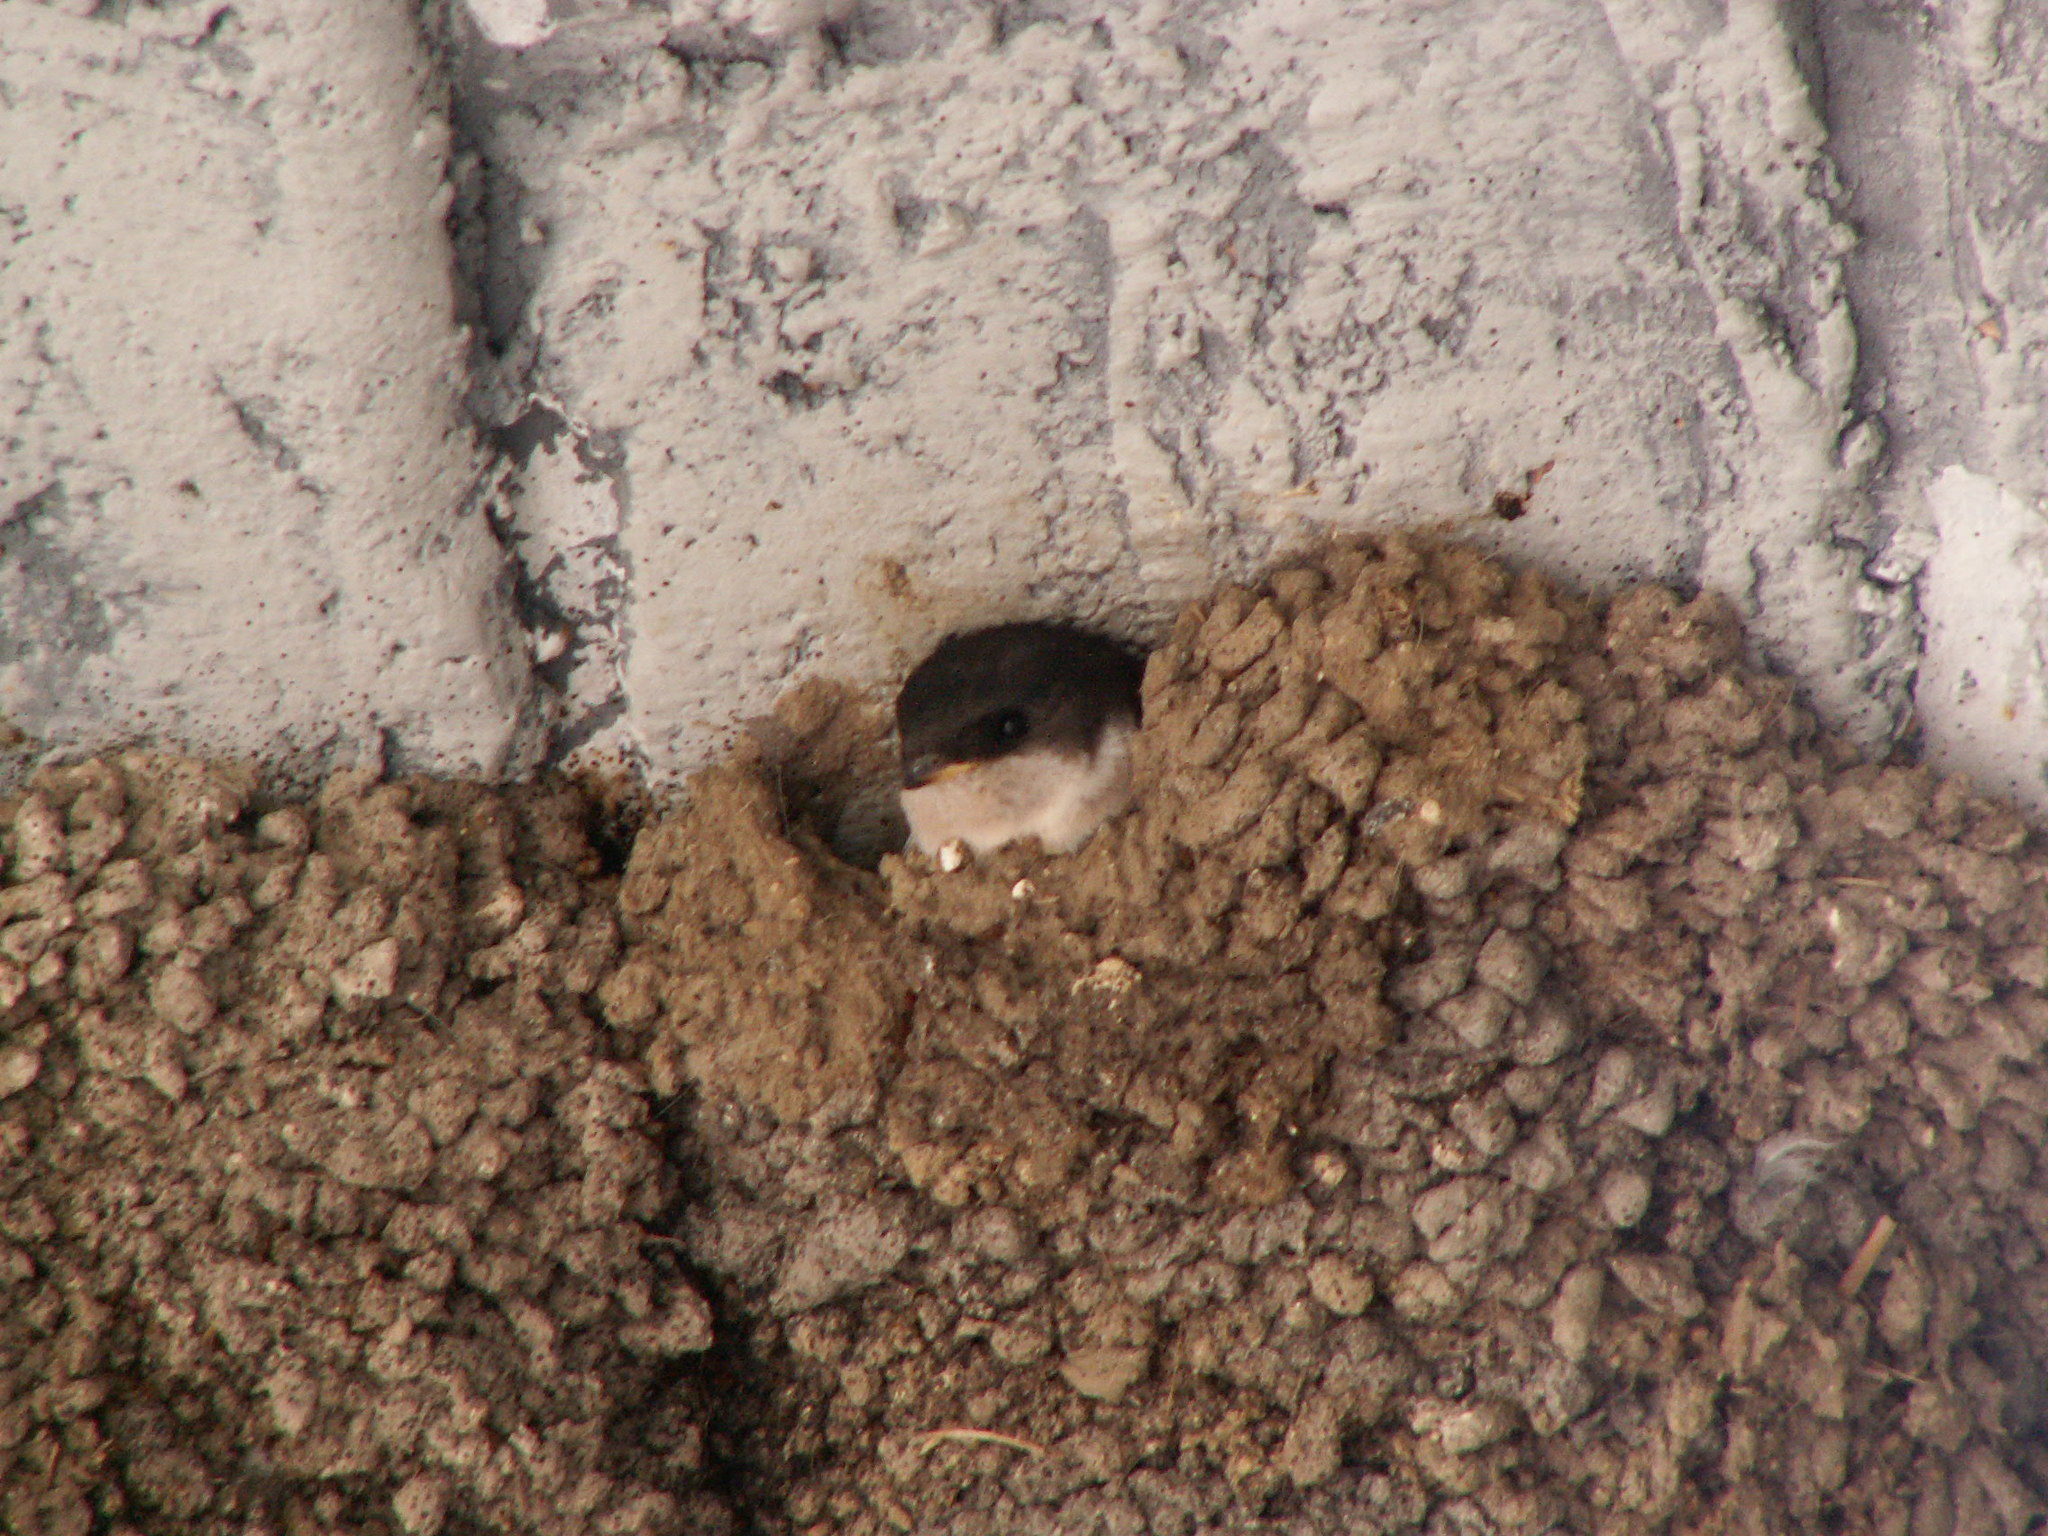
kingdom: Animalia
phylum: Chordata
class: Aves
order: Passeriformes
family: Hirundinidae
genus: Delichon
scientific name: Delichon urbicum
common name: Common house martin
